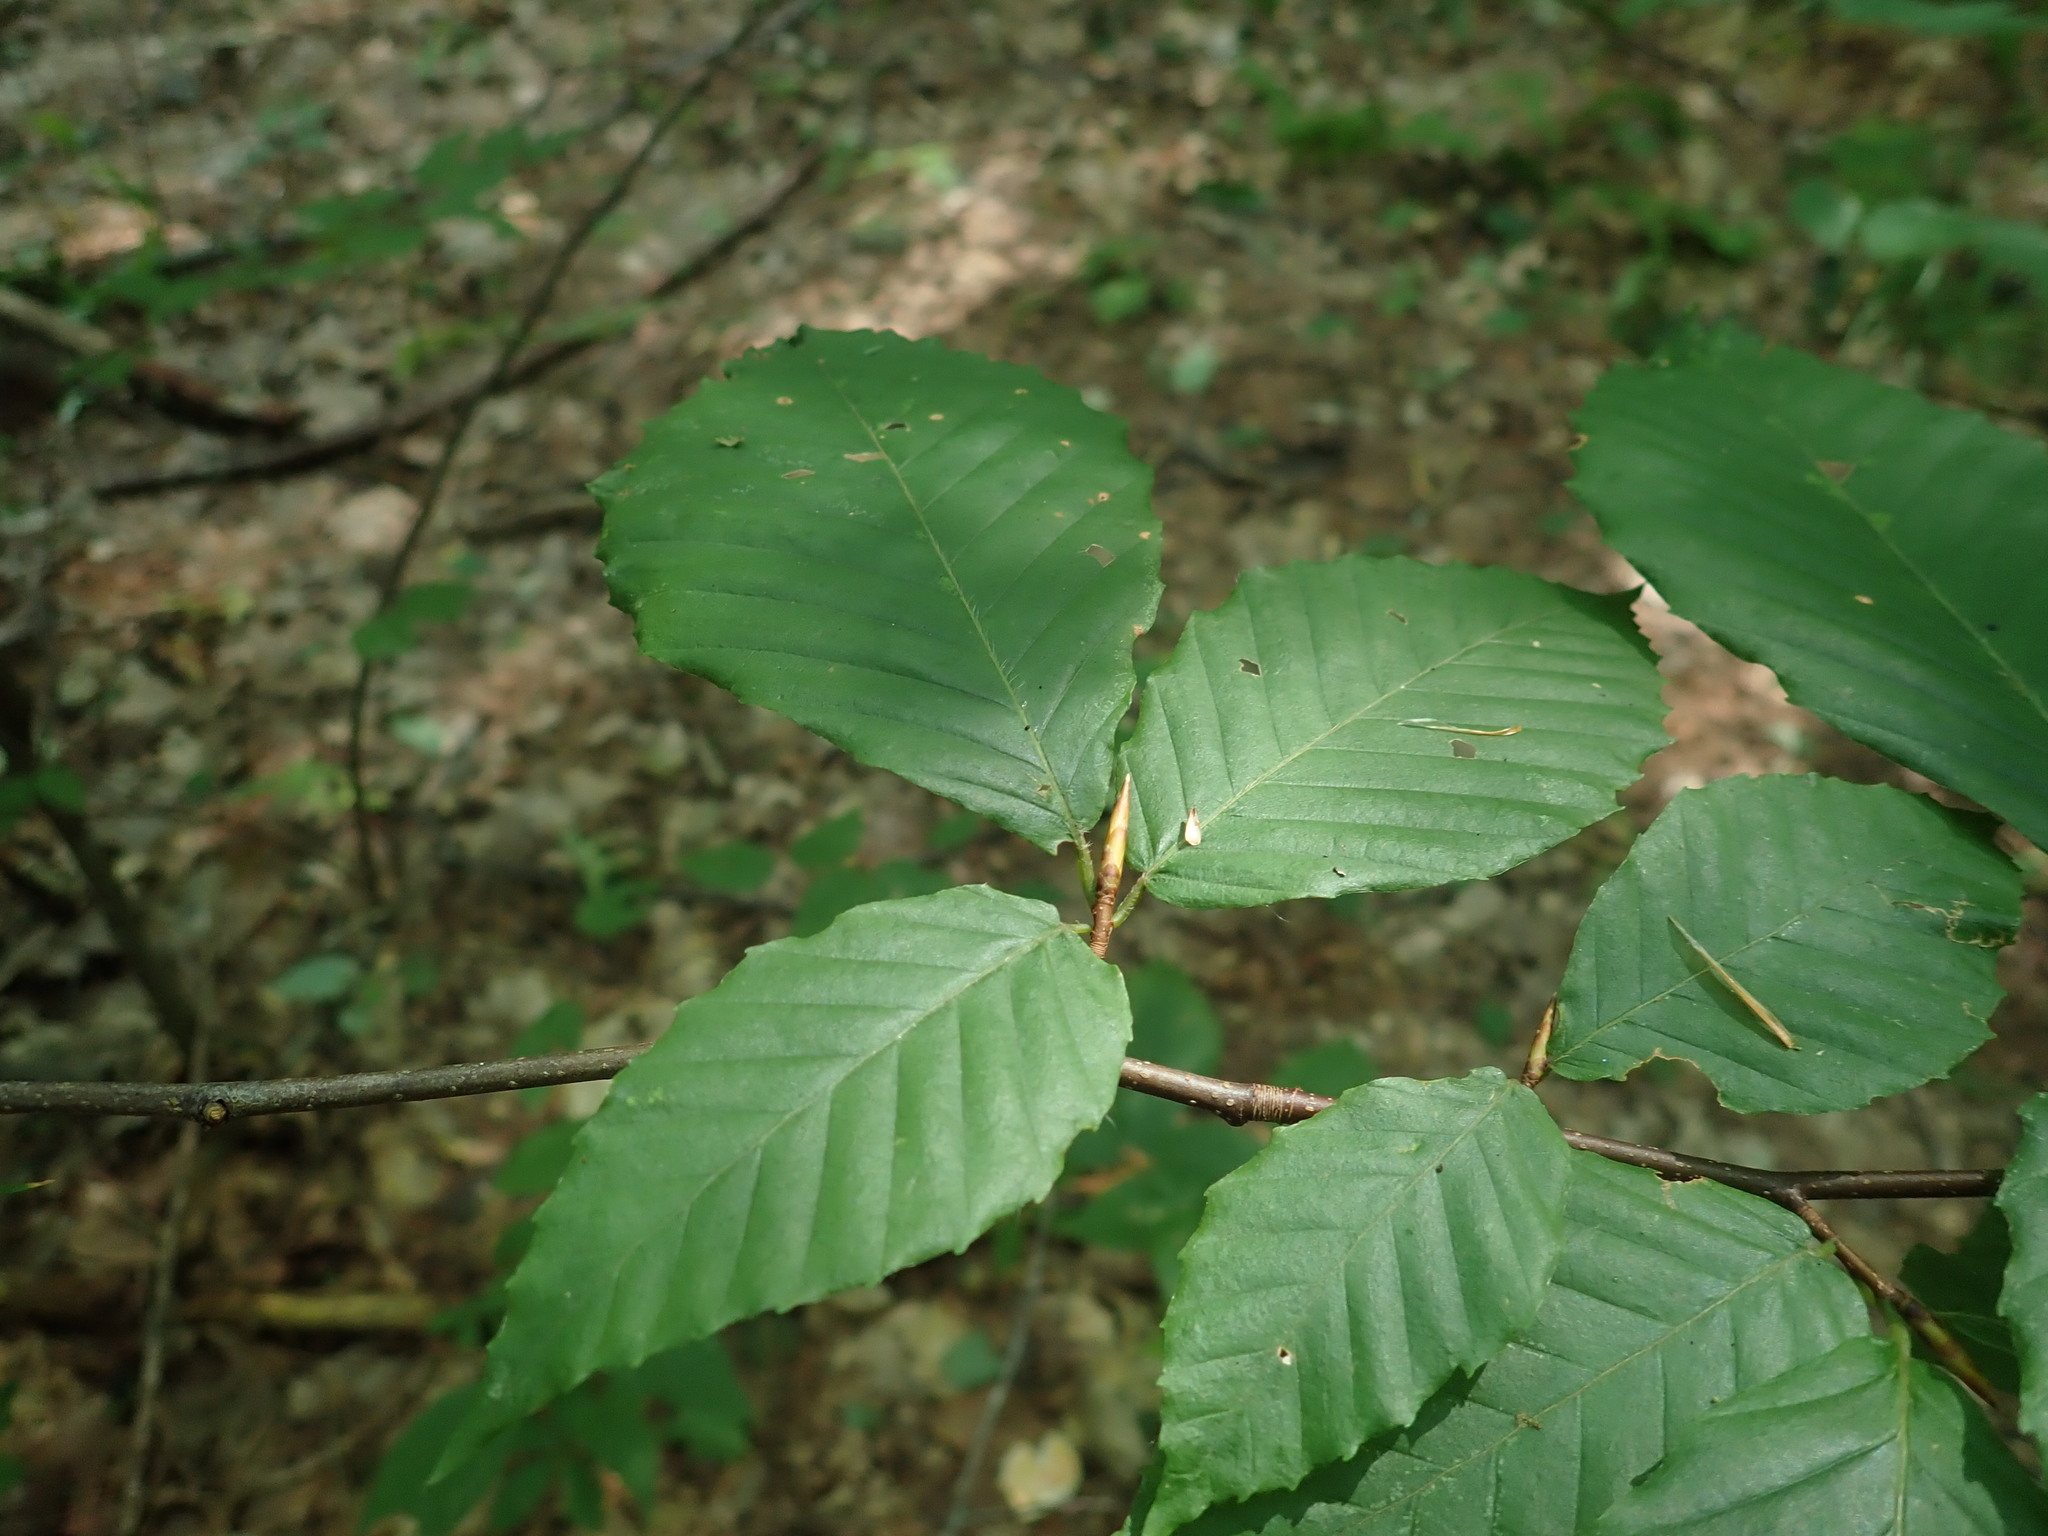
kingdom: Plantae
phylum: Tracheophyta
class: Magnoliopsida
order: Fagales
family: Fagaceae
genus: Fagus
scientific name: Fagus grandifolia
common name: American beech
